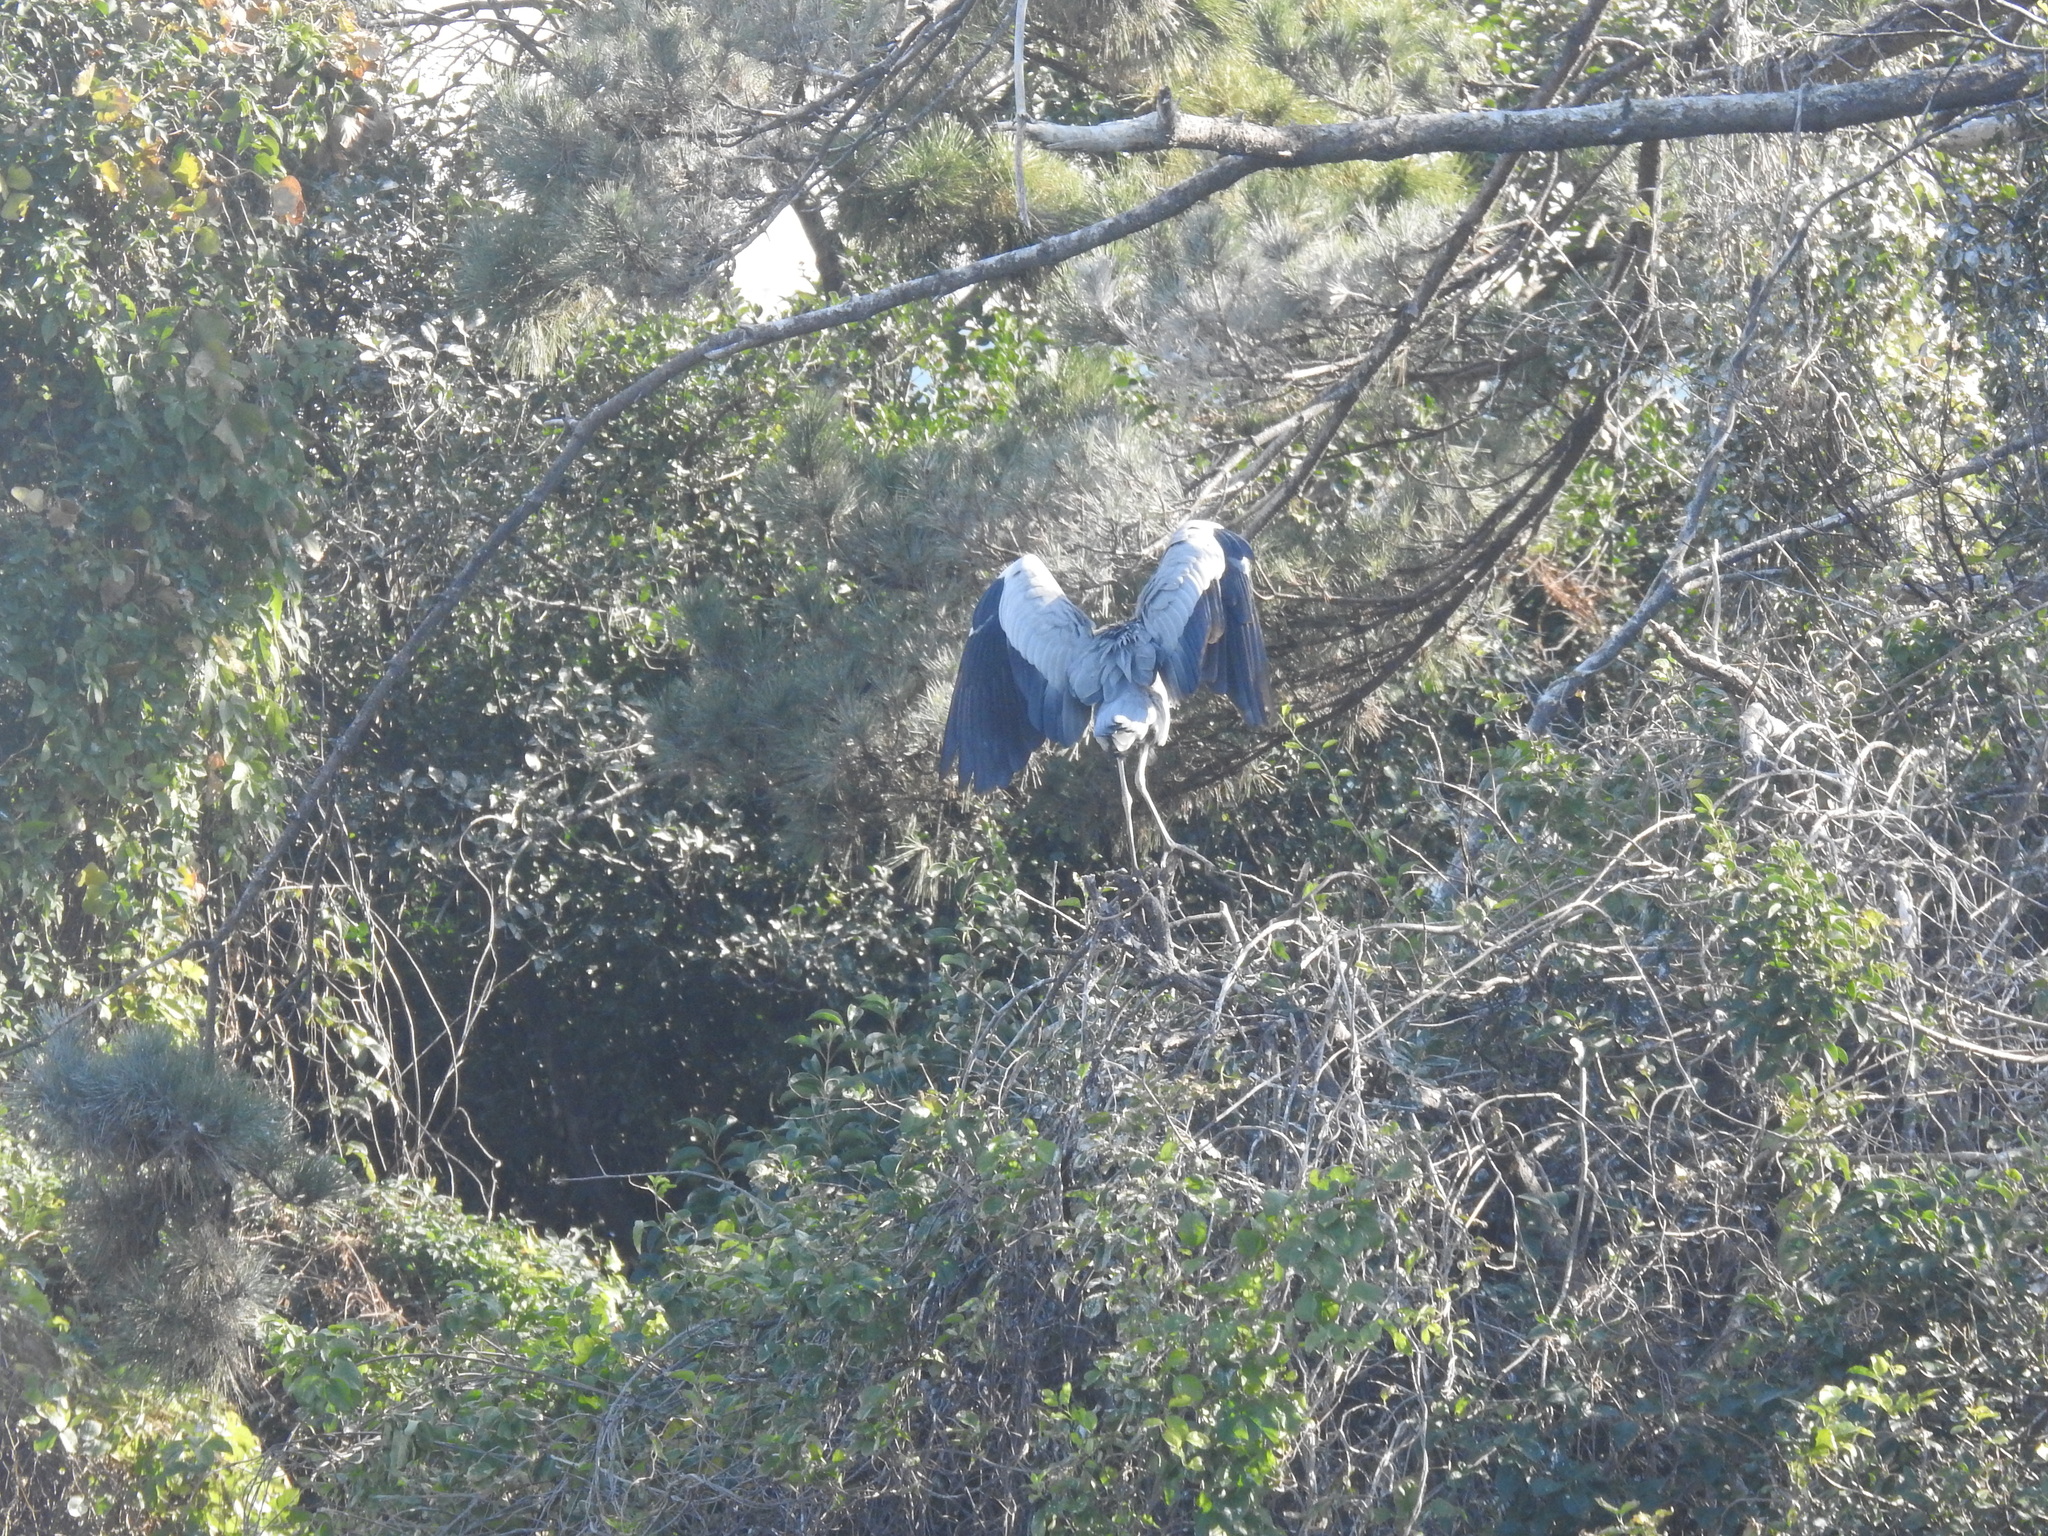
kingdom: Animalia
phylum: Chordata
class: Aves
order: Pelecaniformes
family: Ardeidae
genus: Ardea
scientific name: Ardea cinerea
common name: Grey heron
